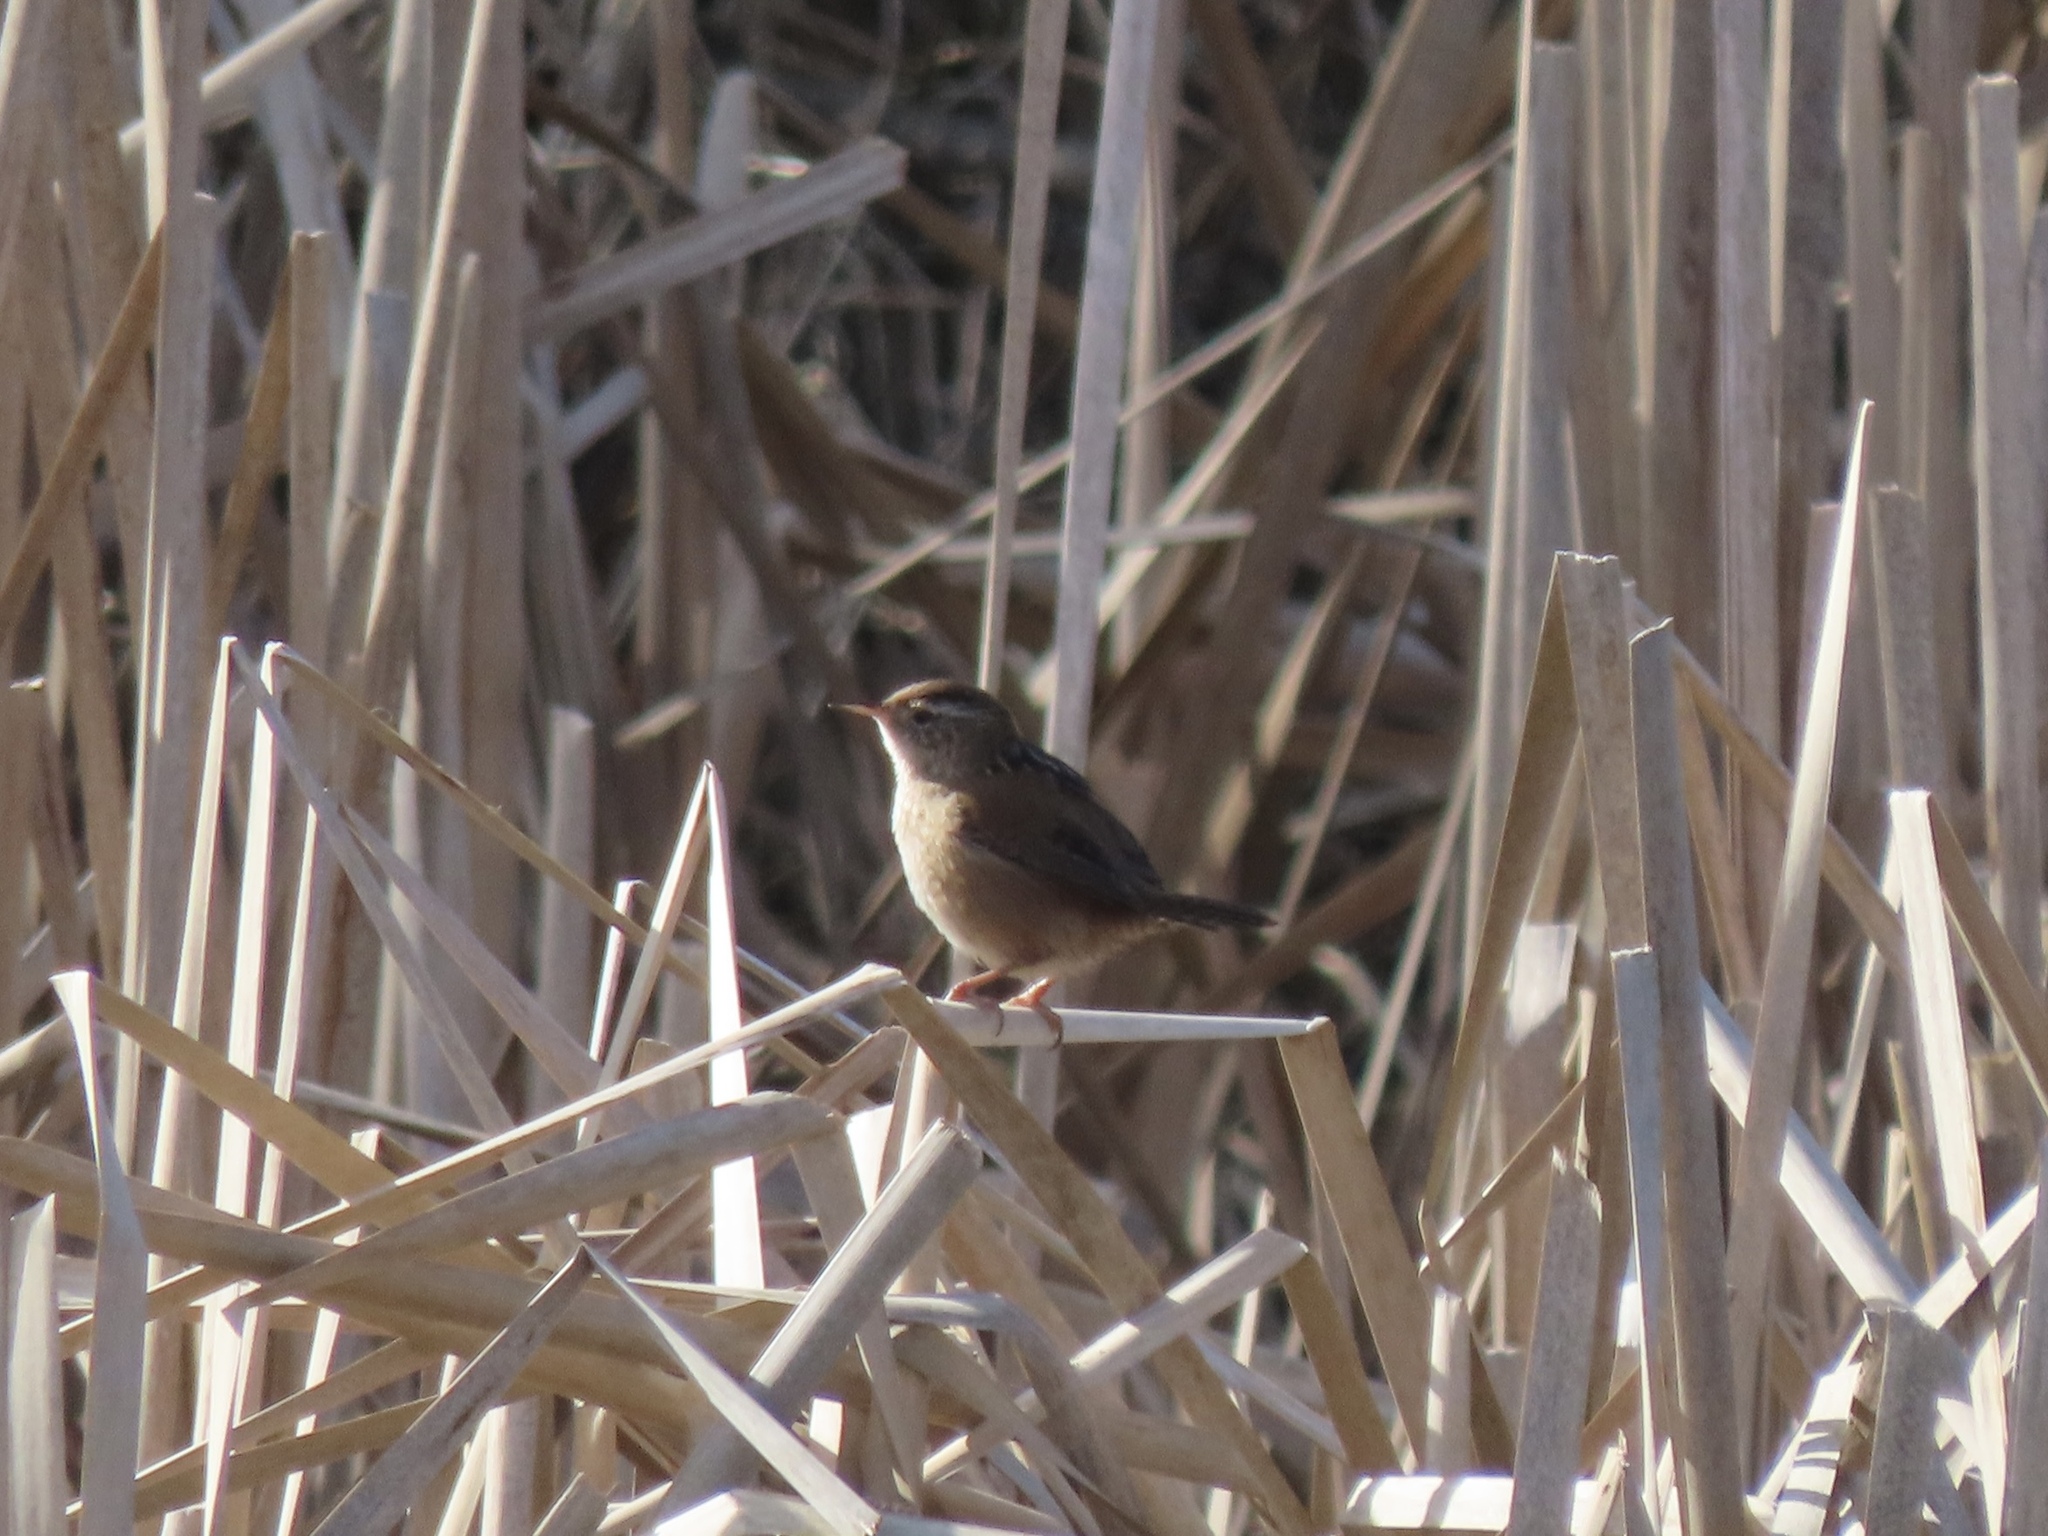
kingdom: Animalia
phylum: Chordata
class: Aves
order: Passeriformes
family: Troglodytidae
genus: Cistothorus
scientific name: Cistothorus palustris
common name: Marsh wren
